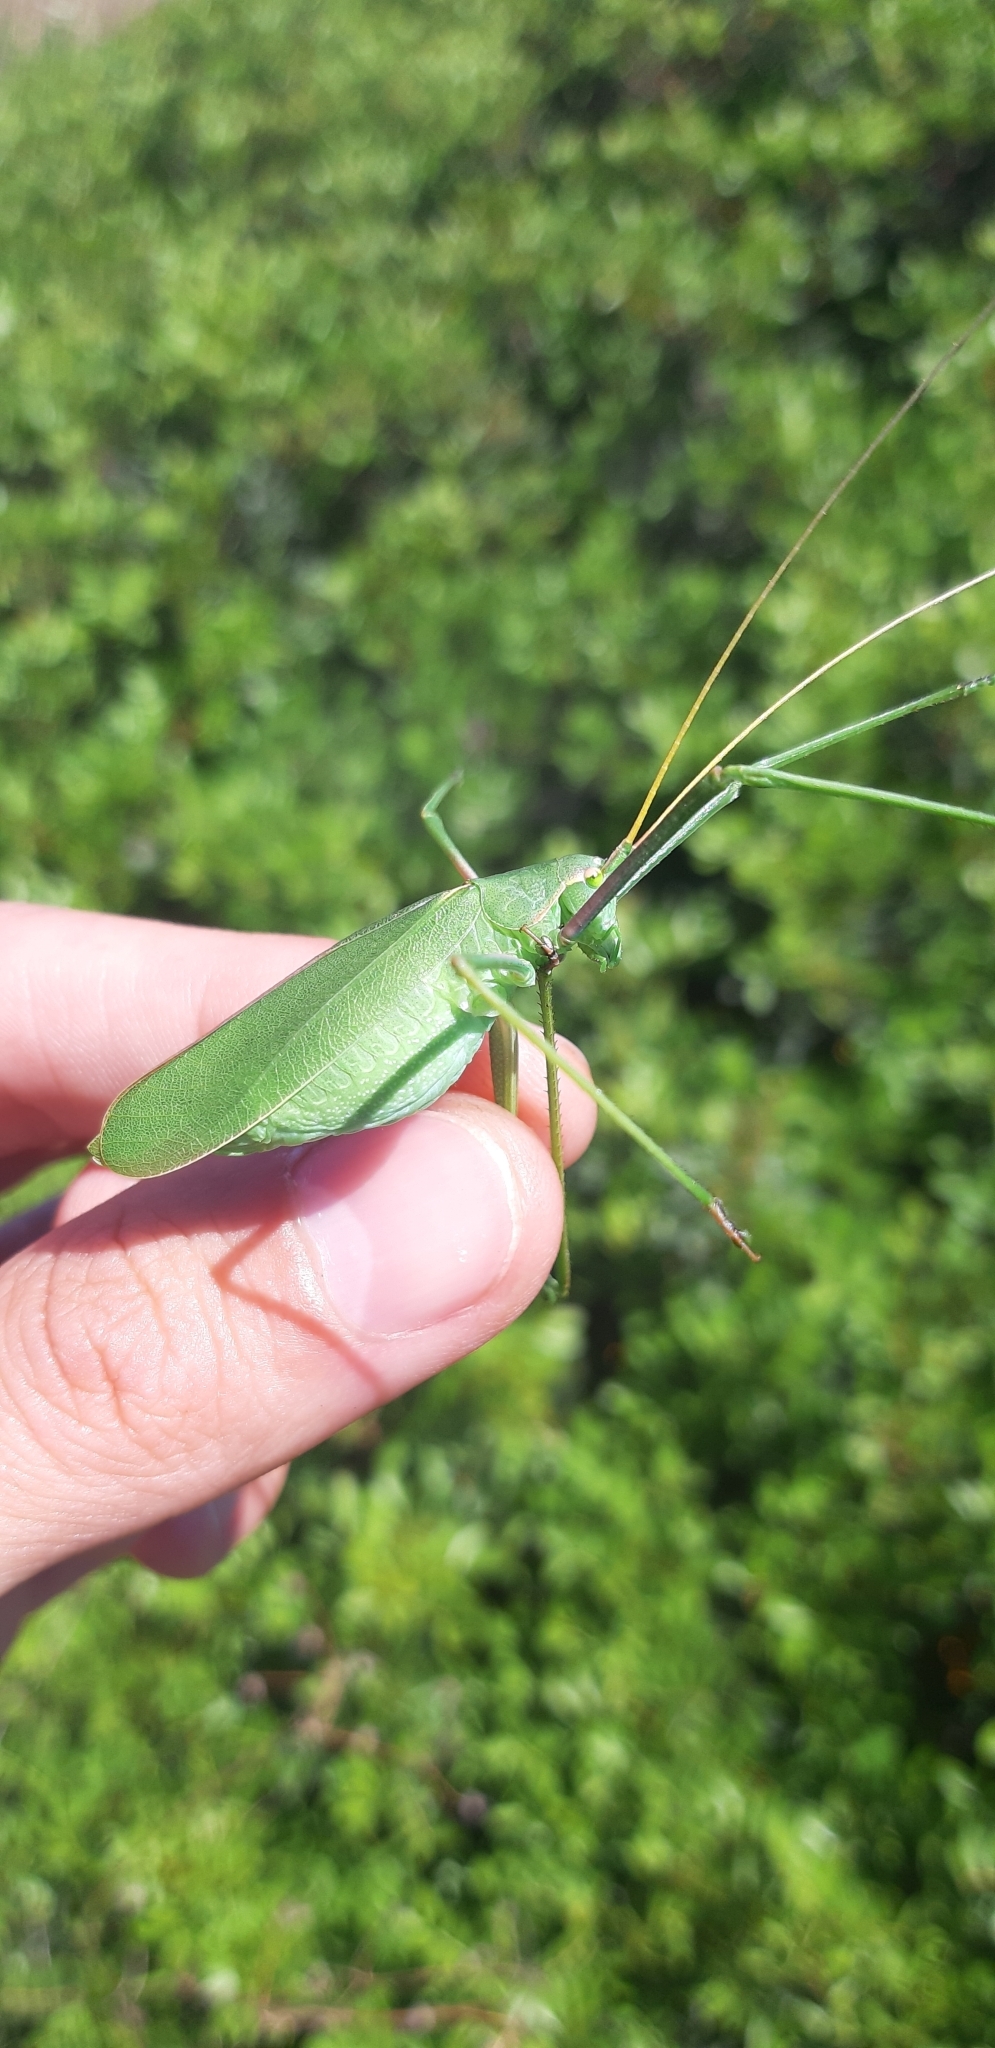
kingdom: Animalia
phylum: Arthropoda
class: Insecta
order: Orthoptera
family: Tettigoniidae
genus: Acrometopa
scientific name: Acrometopa italica
